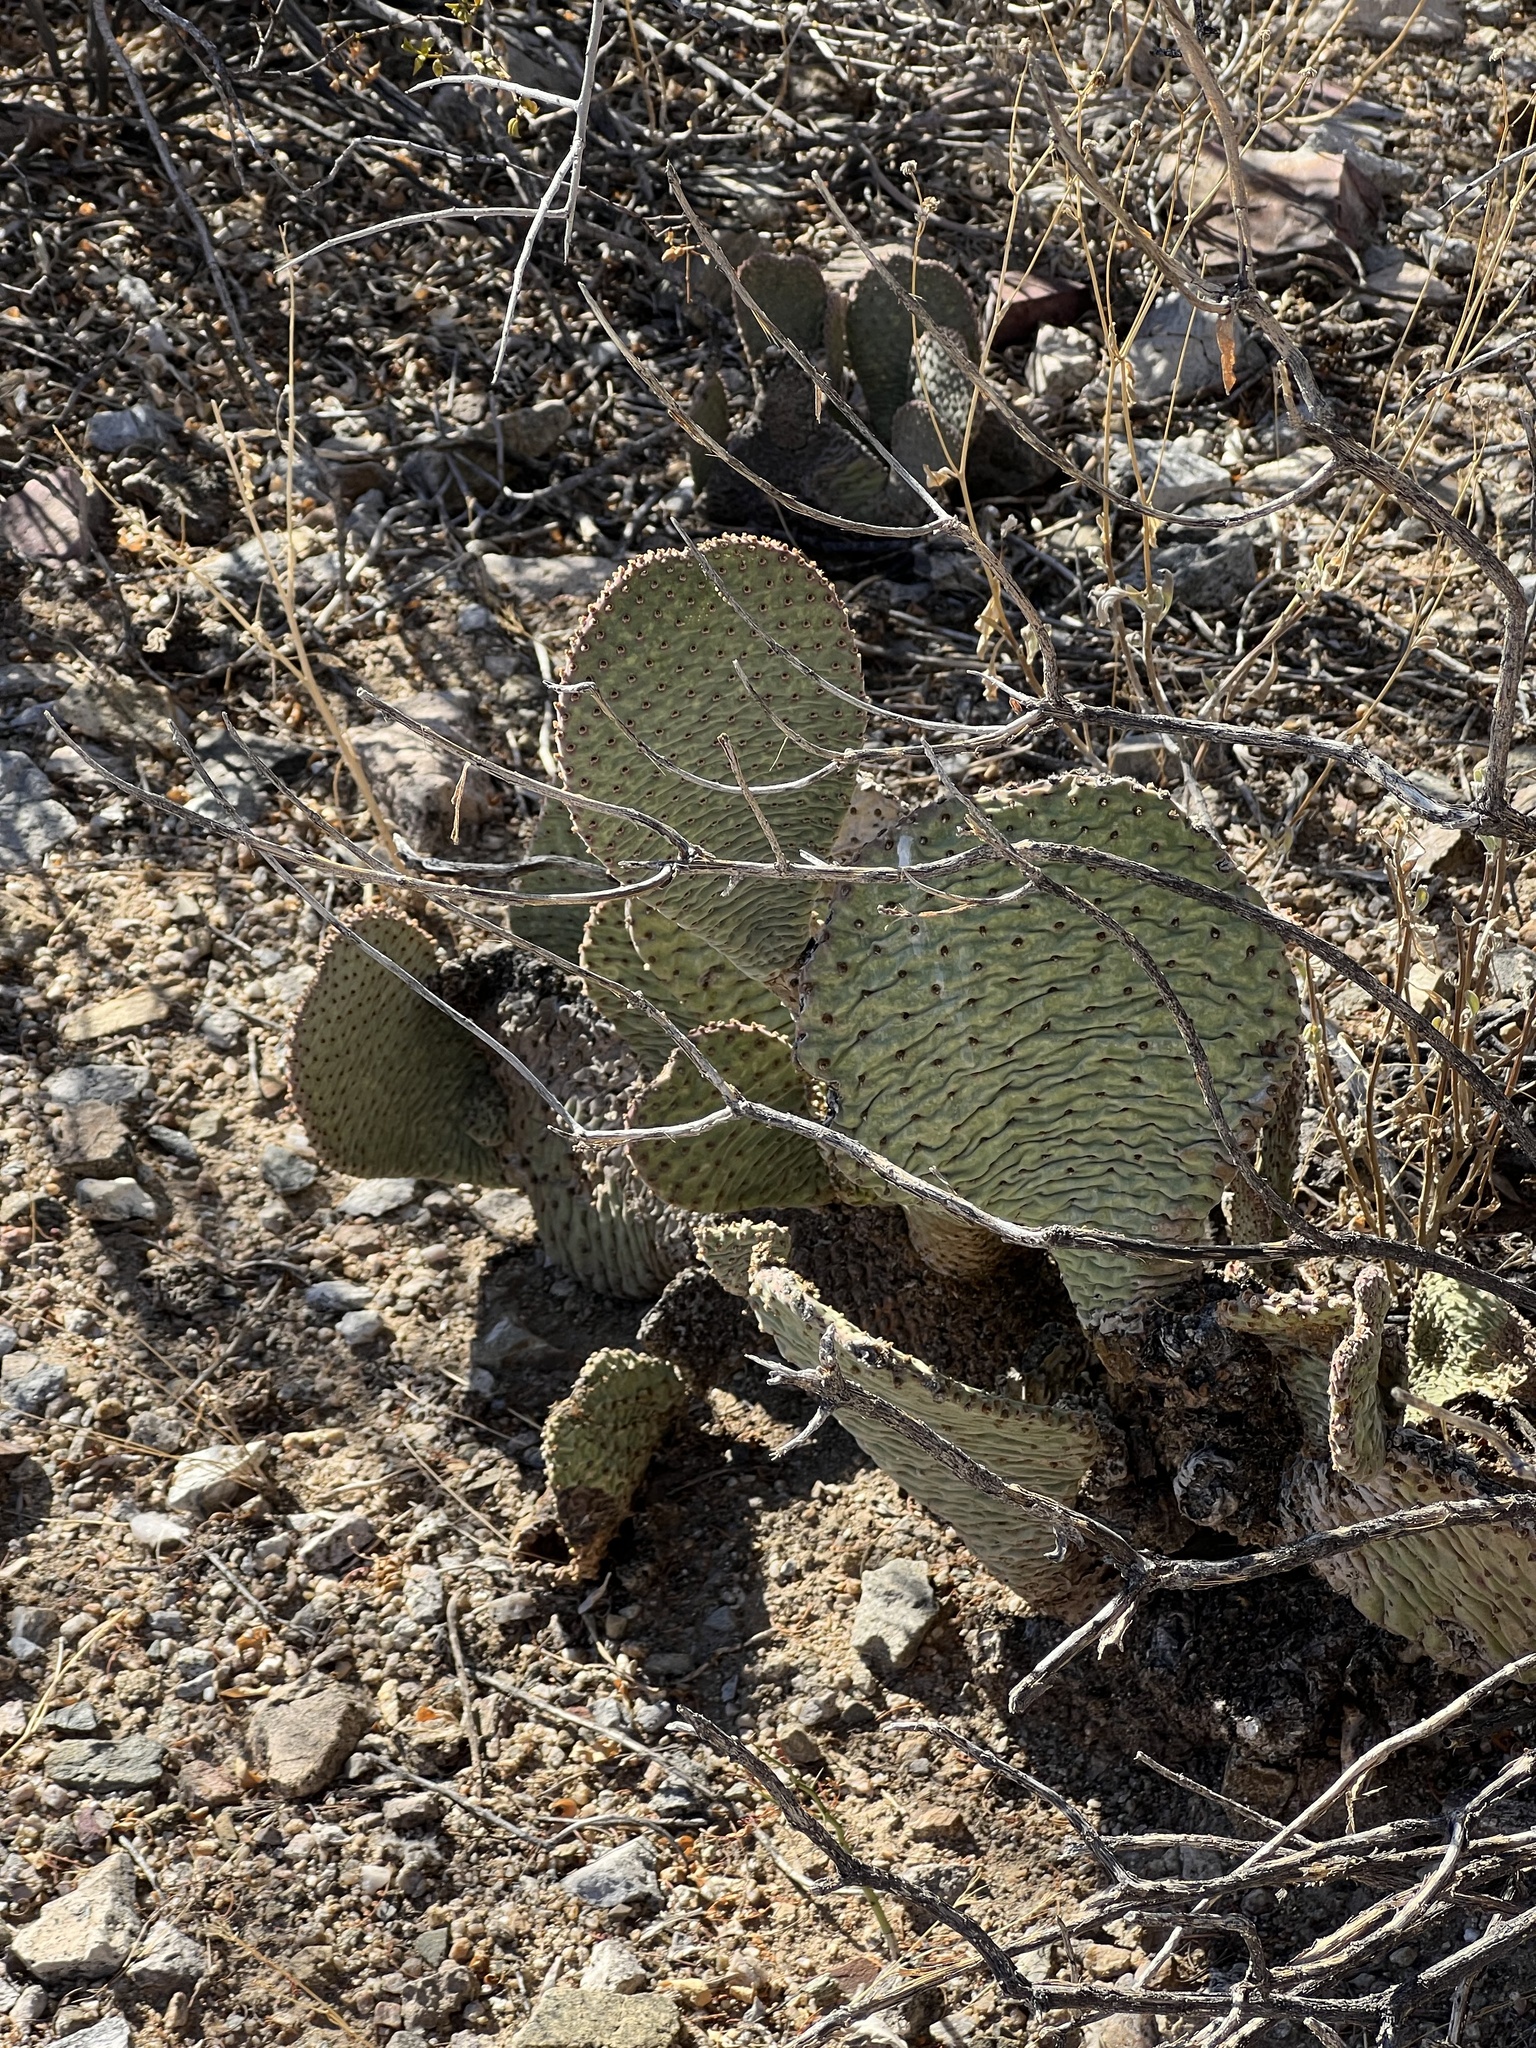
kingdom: Plantae
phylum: Tracheophyta
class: Magnoliopsida
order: Caryophyllales
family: Cactaceae
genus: Opuntia
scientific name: Opuntia basilaris
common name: Beavertail prickly-pear
